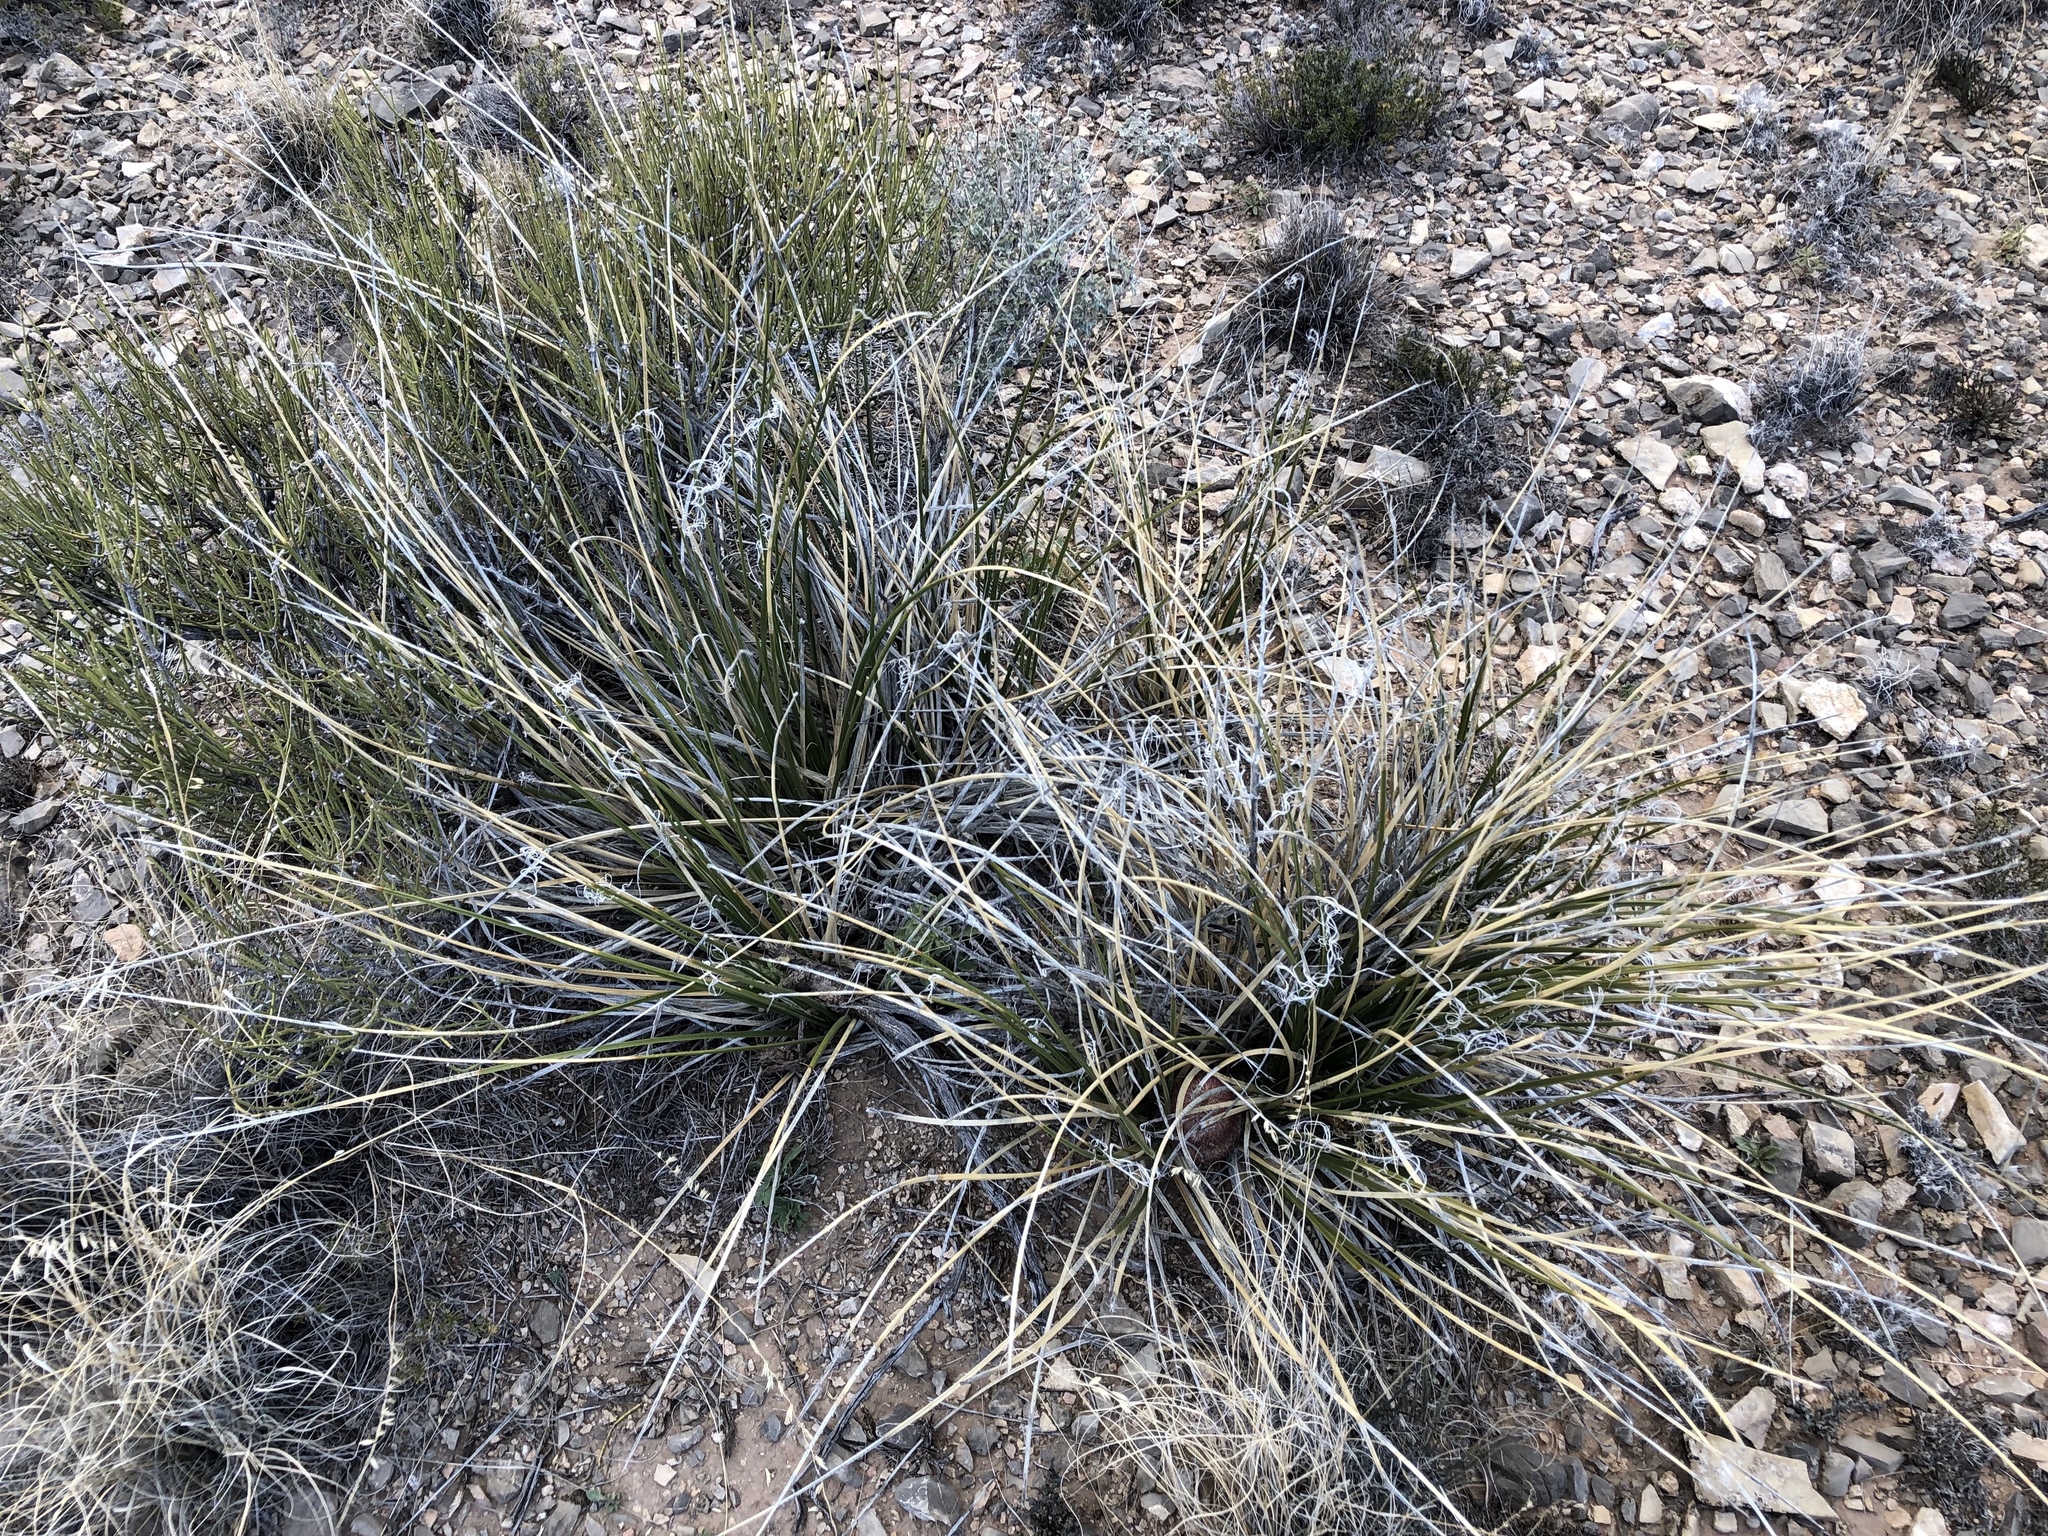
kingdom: Plantae
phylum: Tracheophyta
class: Liliopsida
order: Asparagales
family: Asparagaceae
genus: Nolina
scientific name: Nolina texana
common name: Texas sacahuiste
